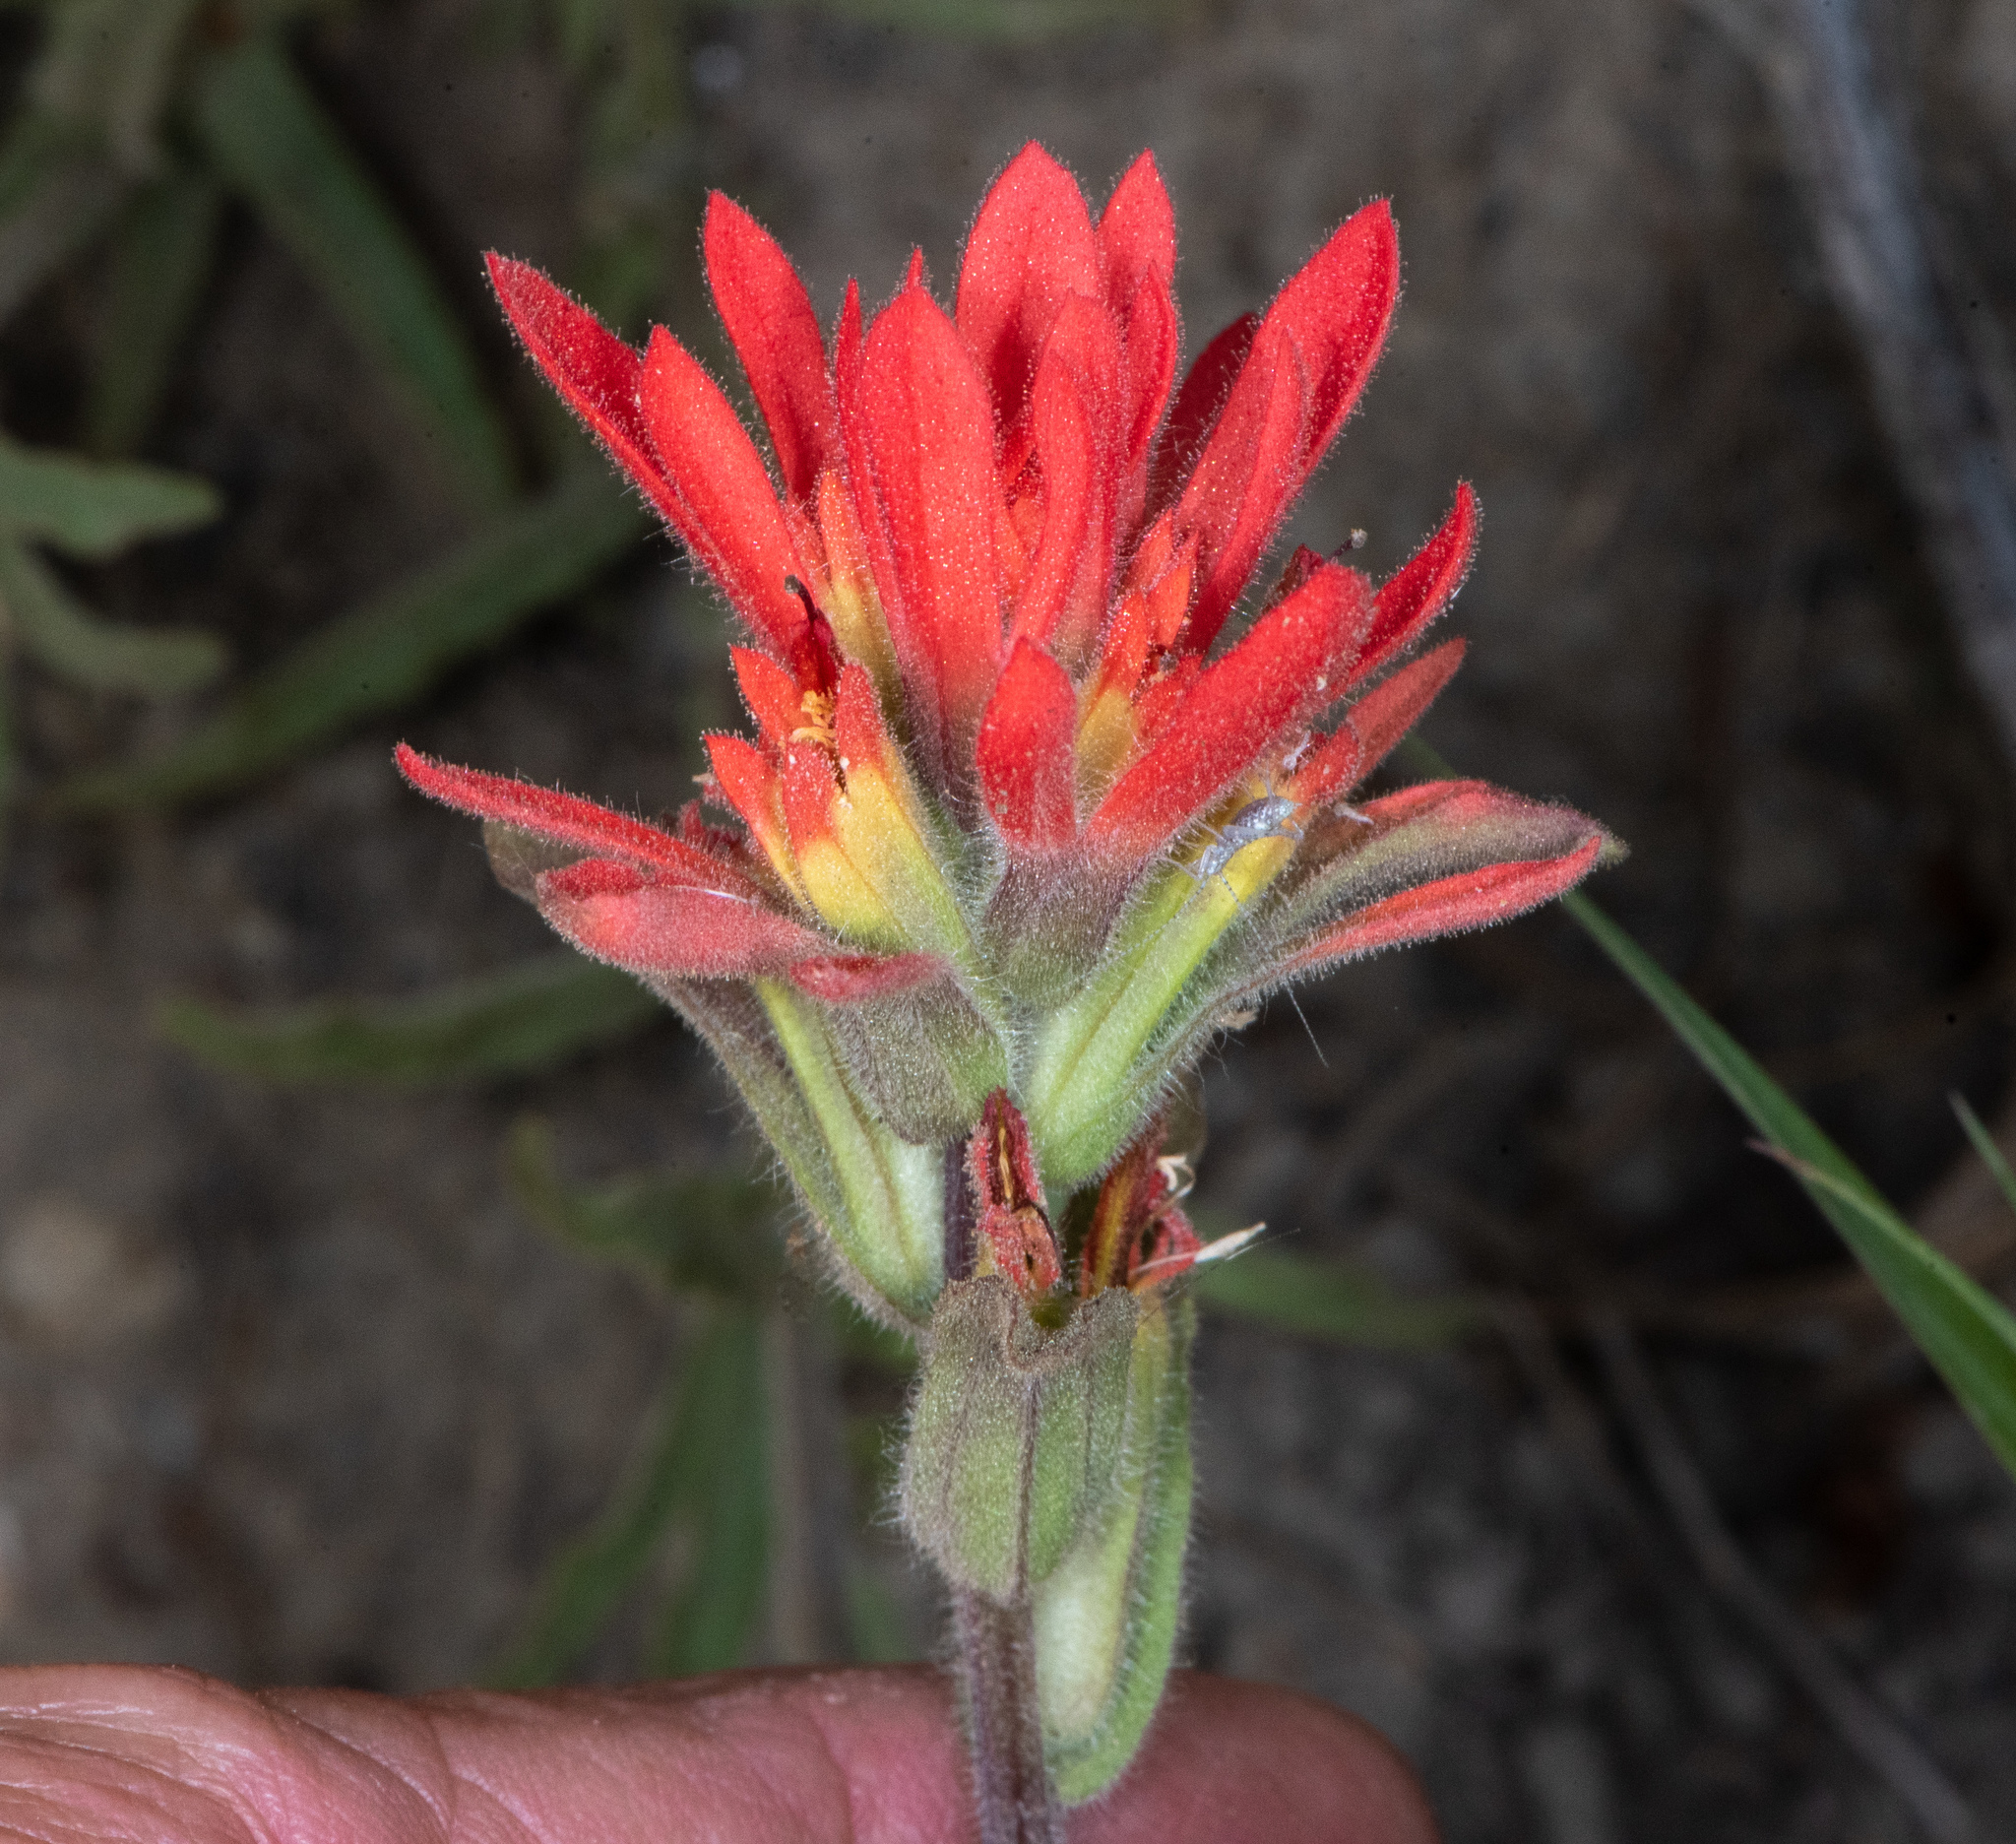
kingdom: Plantae
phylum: Tracheophyta
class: Magnoliopsida
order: Lamiales
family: Orobanchaceae
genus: Castilleja
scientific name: Castilleja affinis
